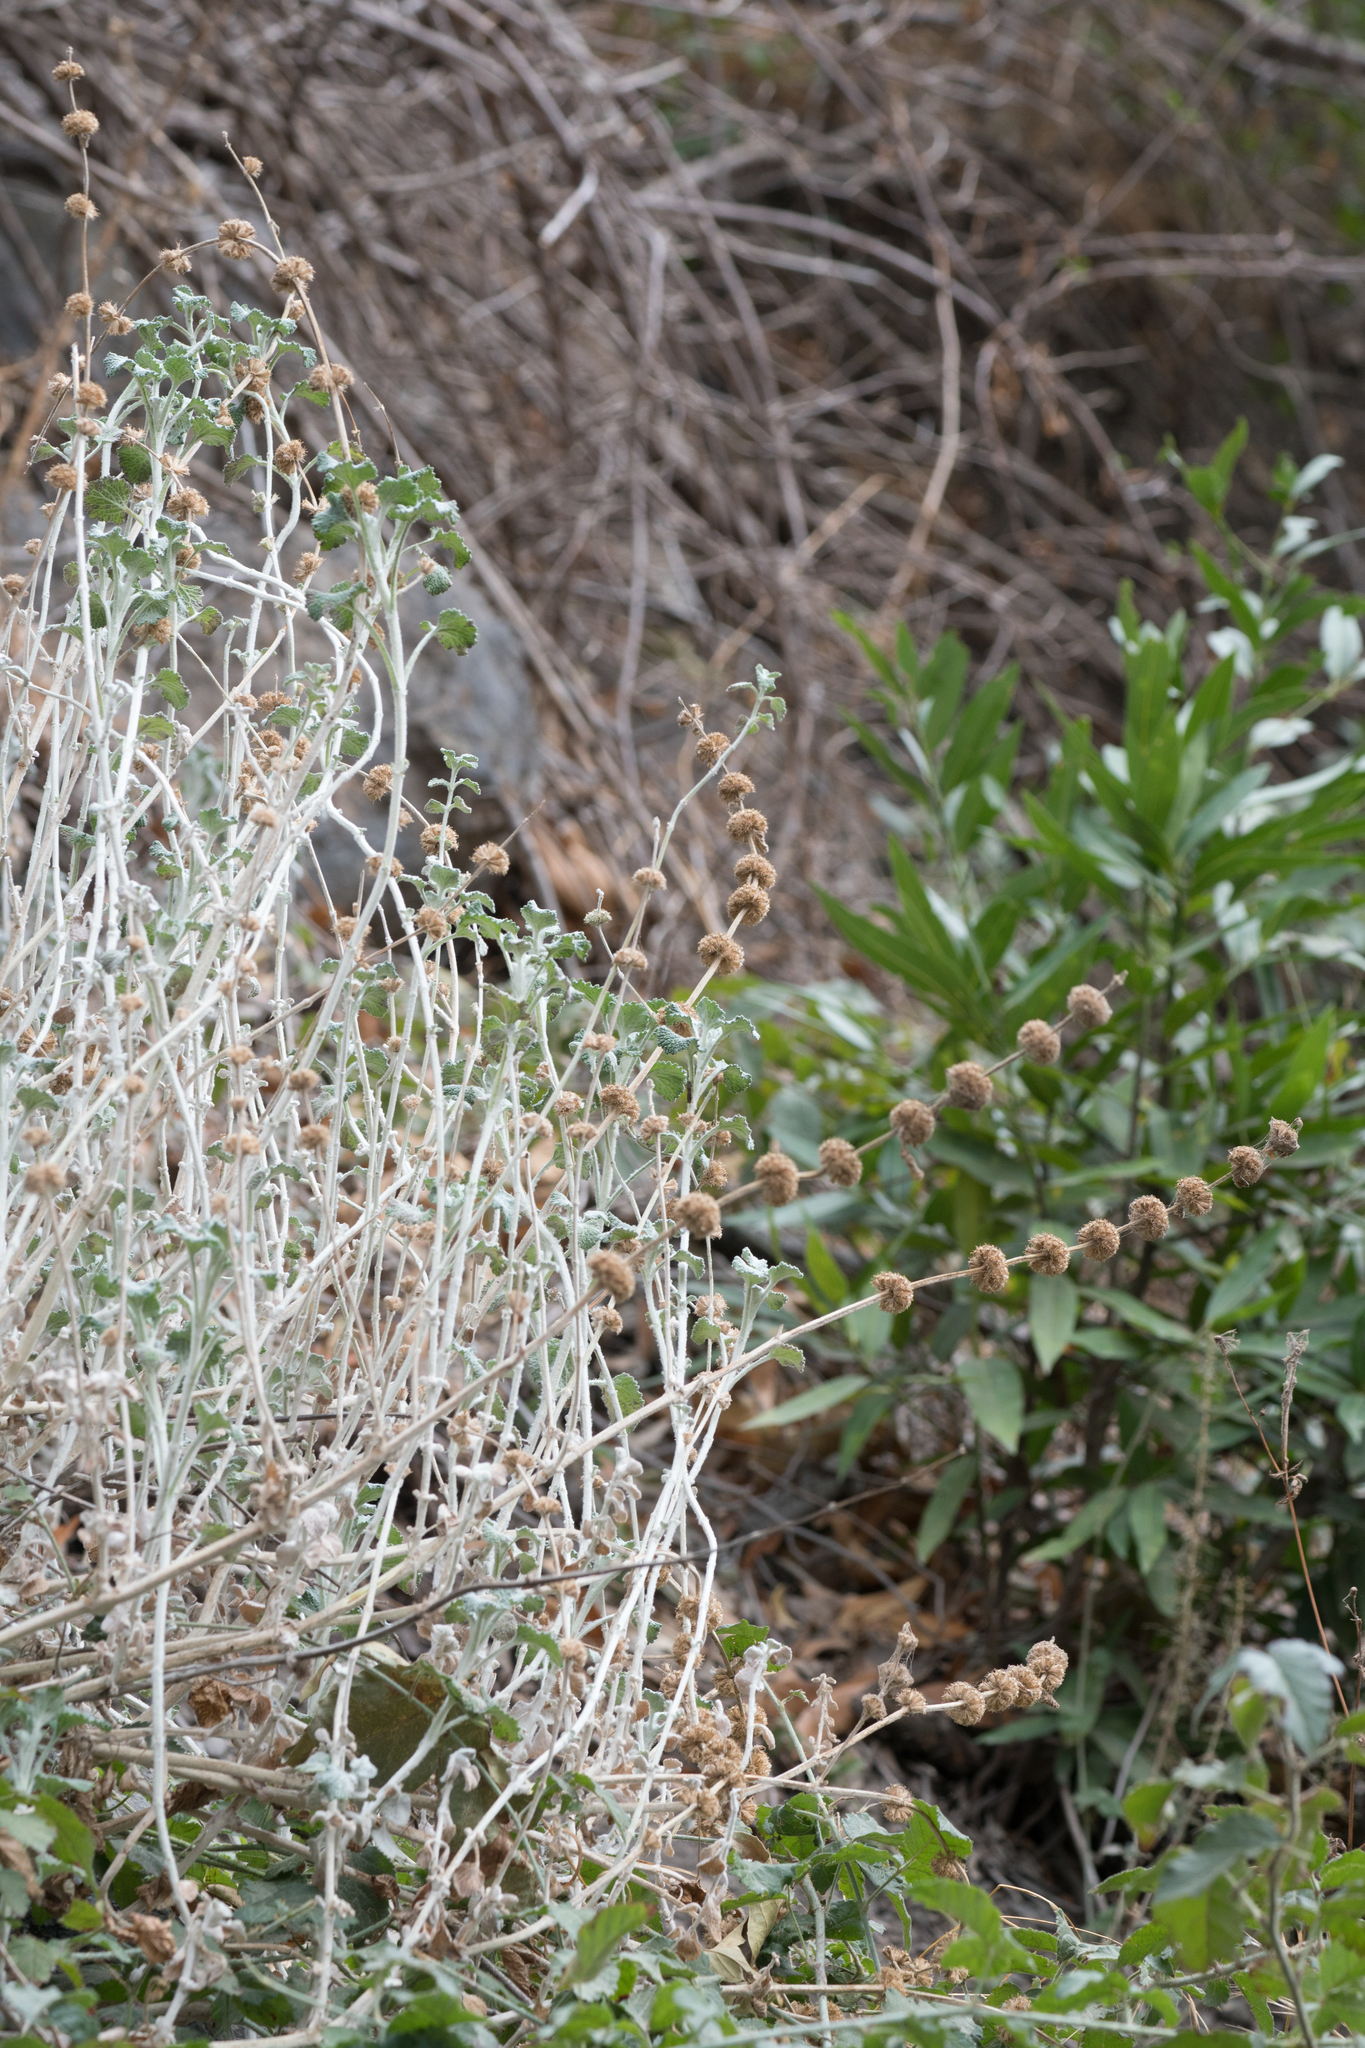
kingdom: Plantae
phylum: Tracheophyta
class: Magnoliopsida
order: Lamiales
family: Lamiaceae
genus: Marrubium
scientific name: Marrubium vulgare
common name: Horehound
